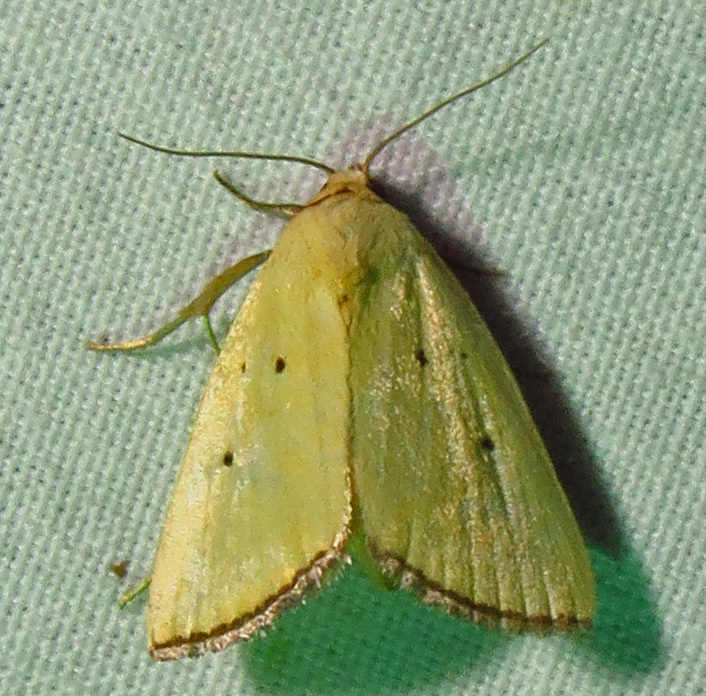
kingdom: Animalia
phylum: Arthropoda
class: Insecta
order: Lepidoptera
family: Noctuidae
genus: Marimatha
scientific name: Marimatha nigrofimbria
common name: Black-bordered lemon moth
